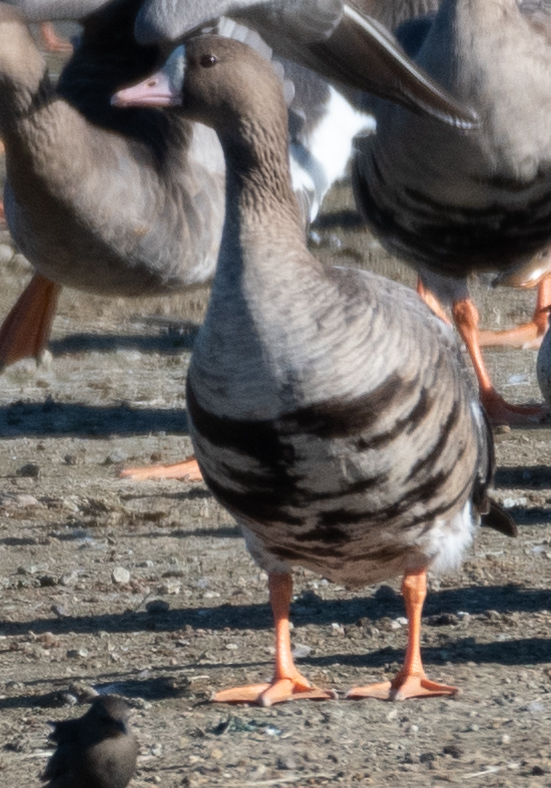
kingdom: Animalia
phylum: Chordata
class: Aves
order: Anseriformes
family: Anatidae
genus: Anser
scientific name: Anser albifrons
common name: Greater white-fronted goose
